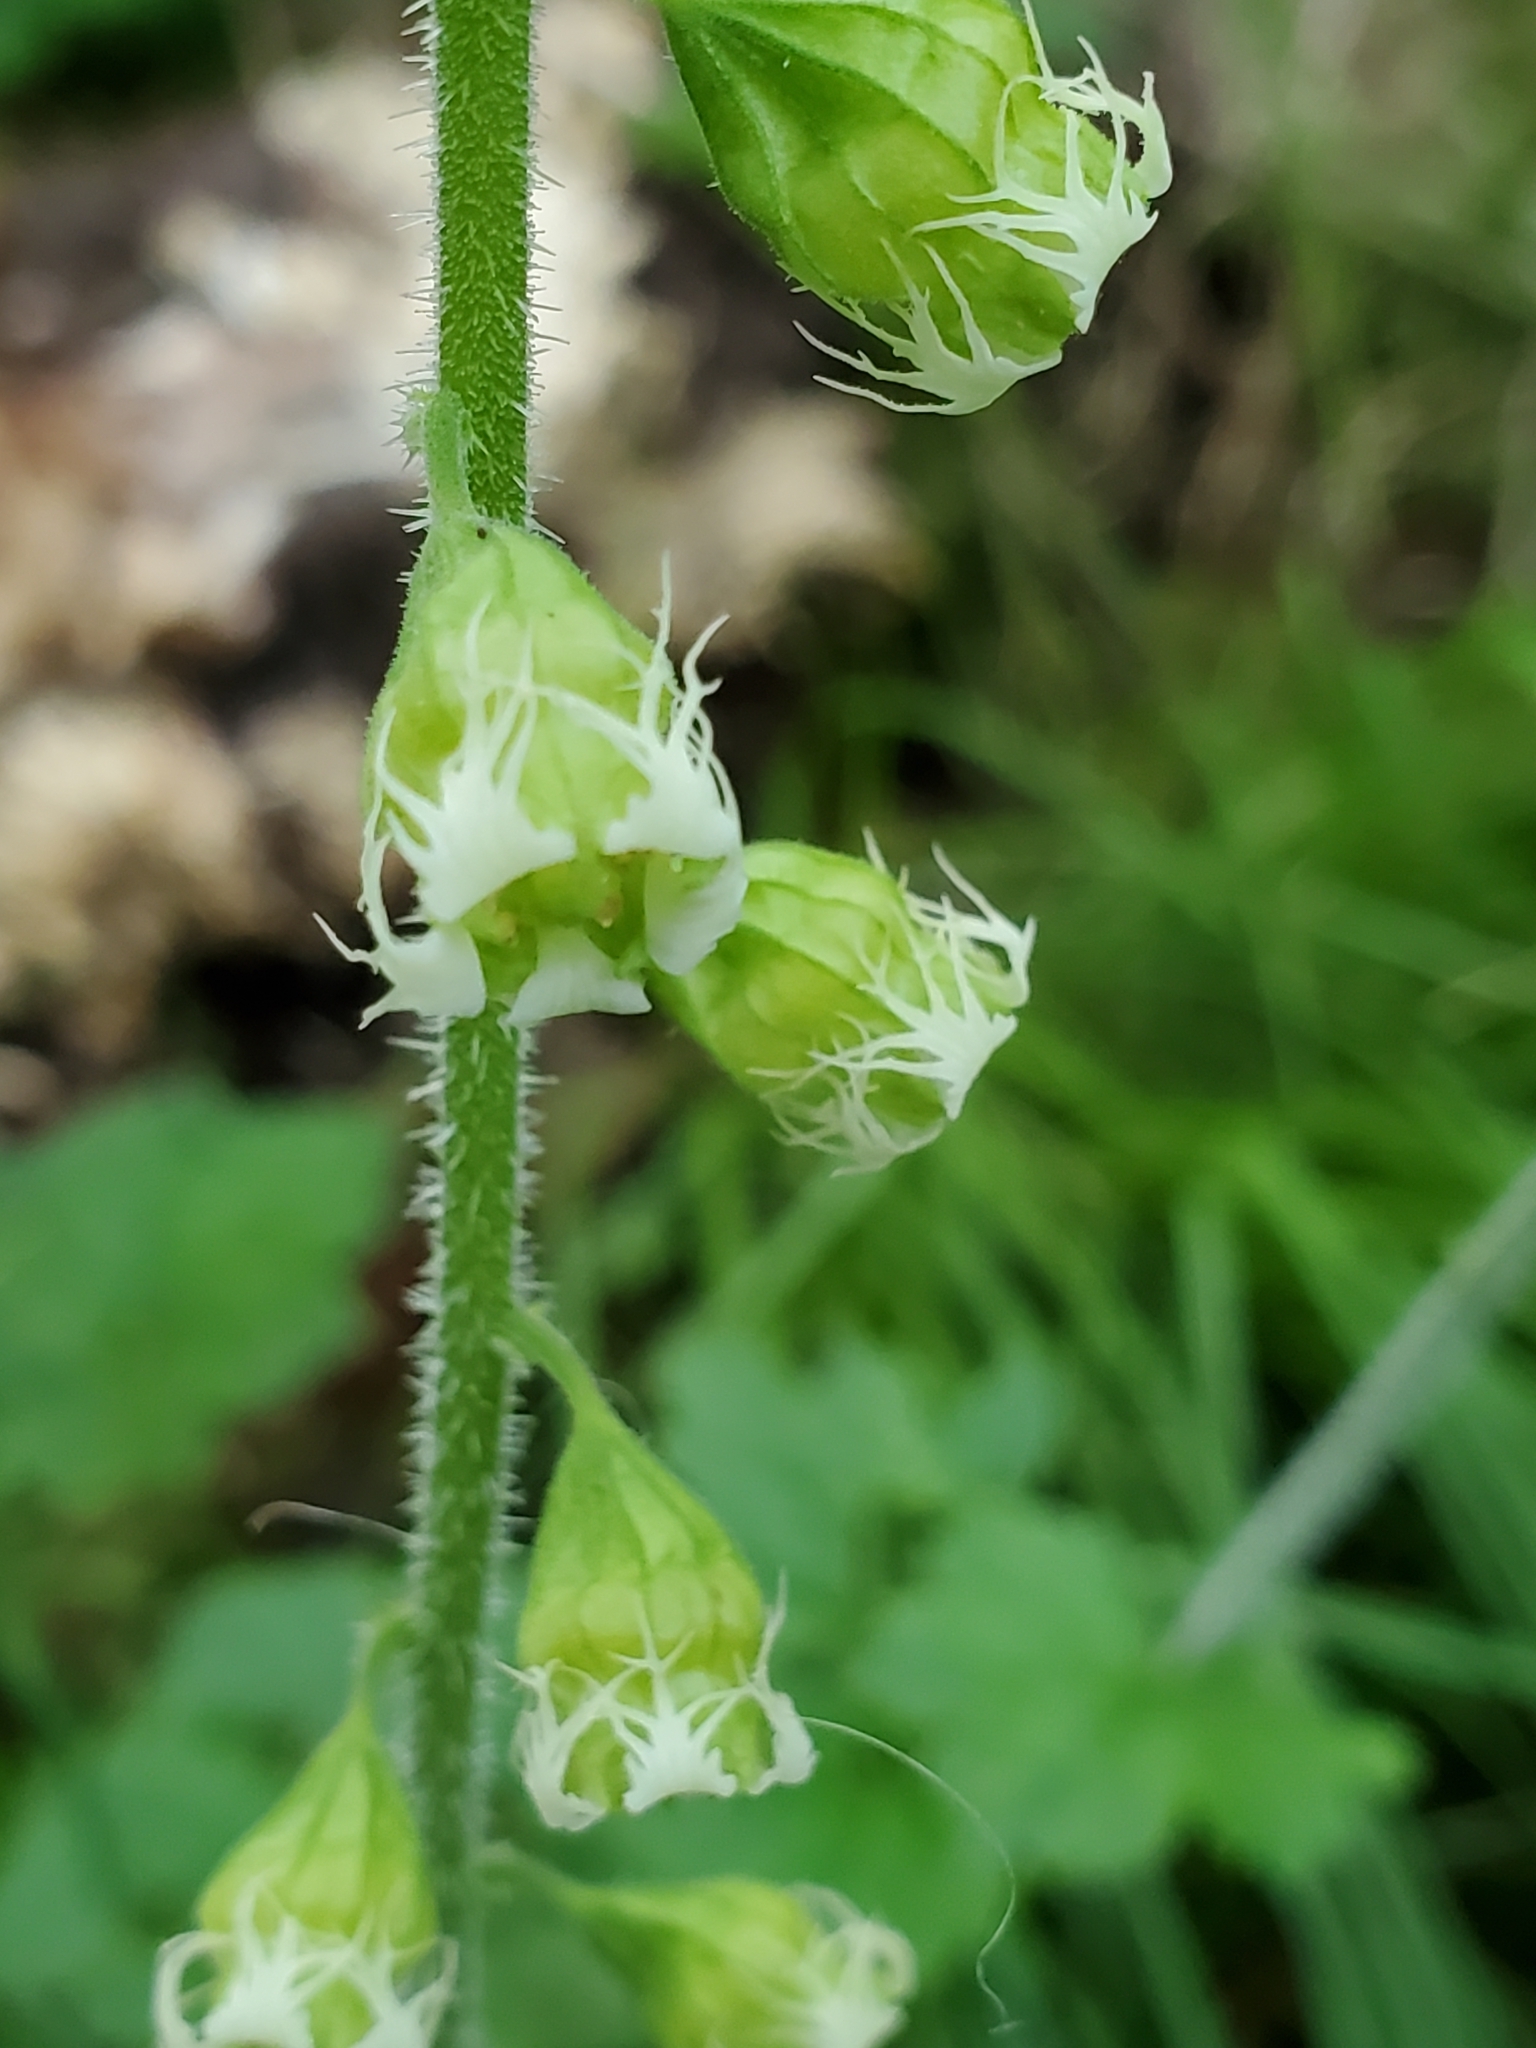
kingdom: Plantae
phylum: Tracheophyta
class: Magnoliopsida
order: Saxifragales
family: Saxifragaceae
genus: Tellima
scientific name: Tellima grandiflora
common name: Fringecups
